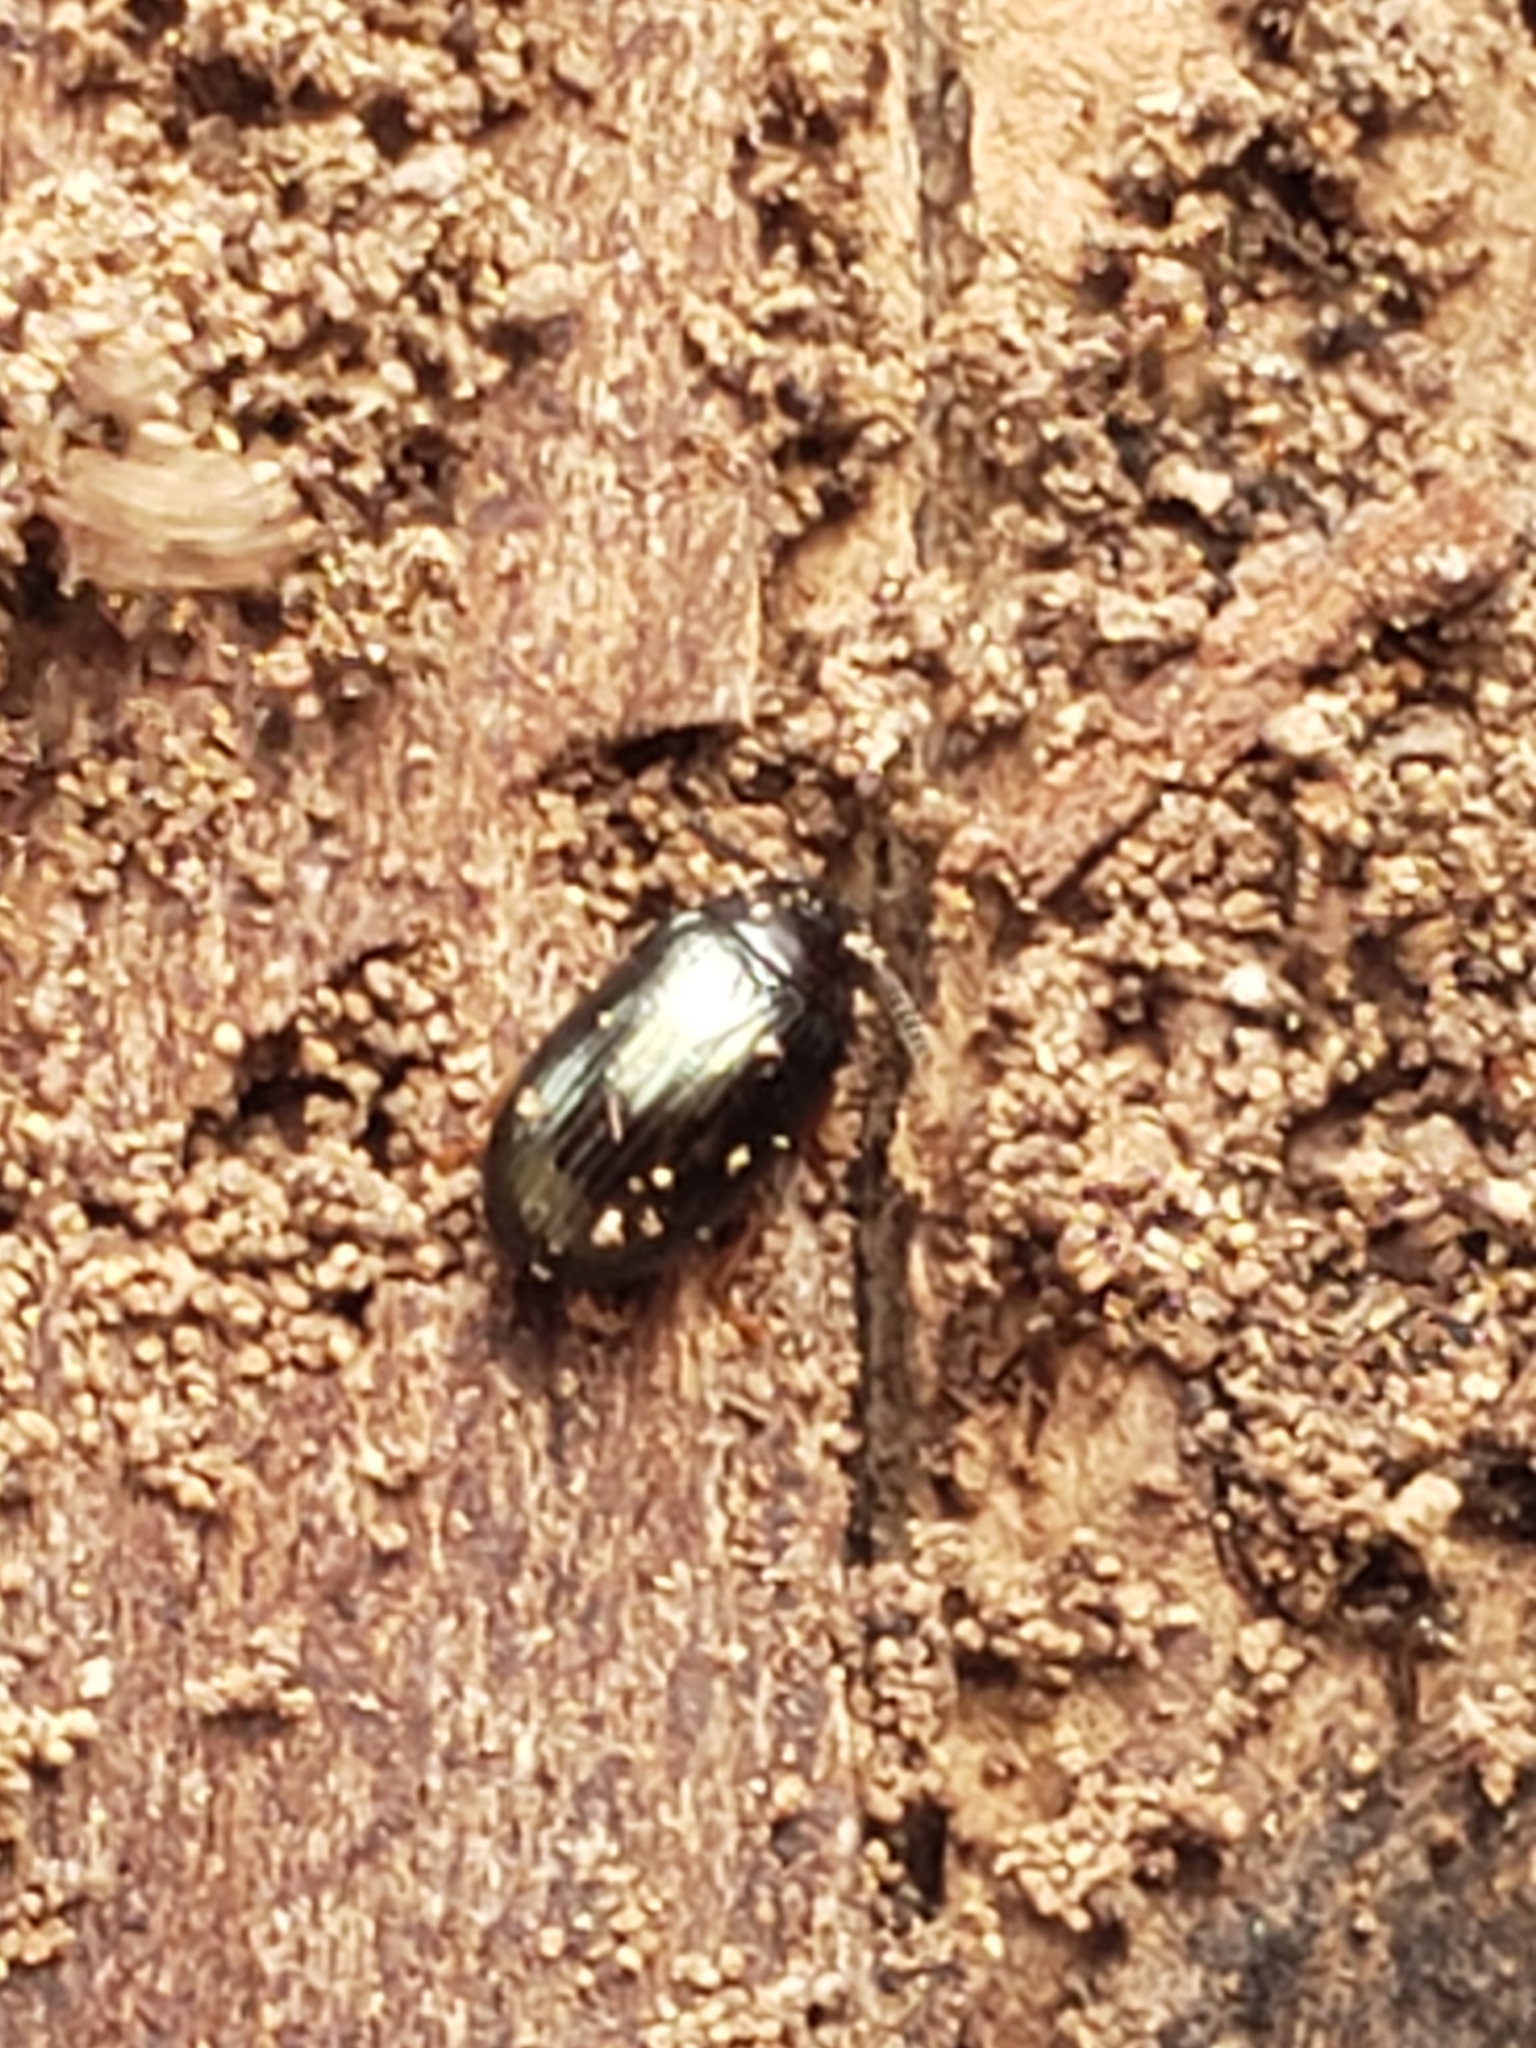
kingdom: Animalia
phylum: Arthropoda
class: Insecta
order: Coleoptera
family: Tenebrionidae
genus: Neomida
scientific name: Neomida bicornis
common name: Two-horned darkling beetle
